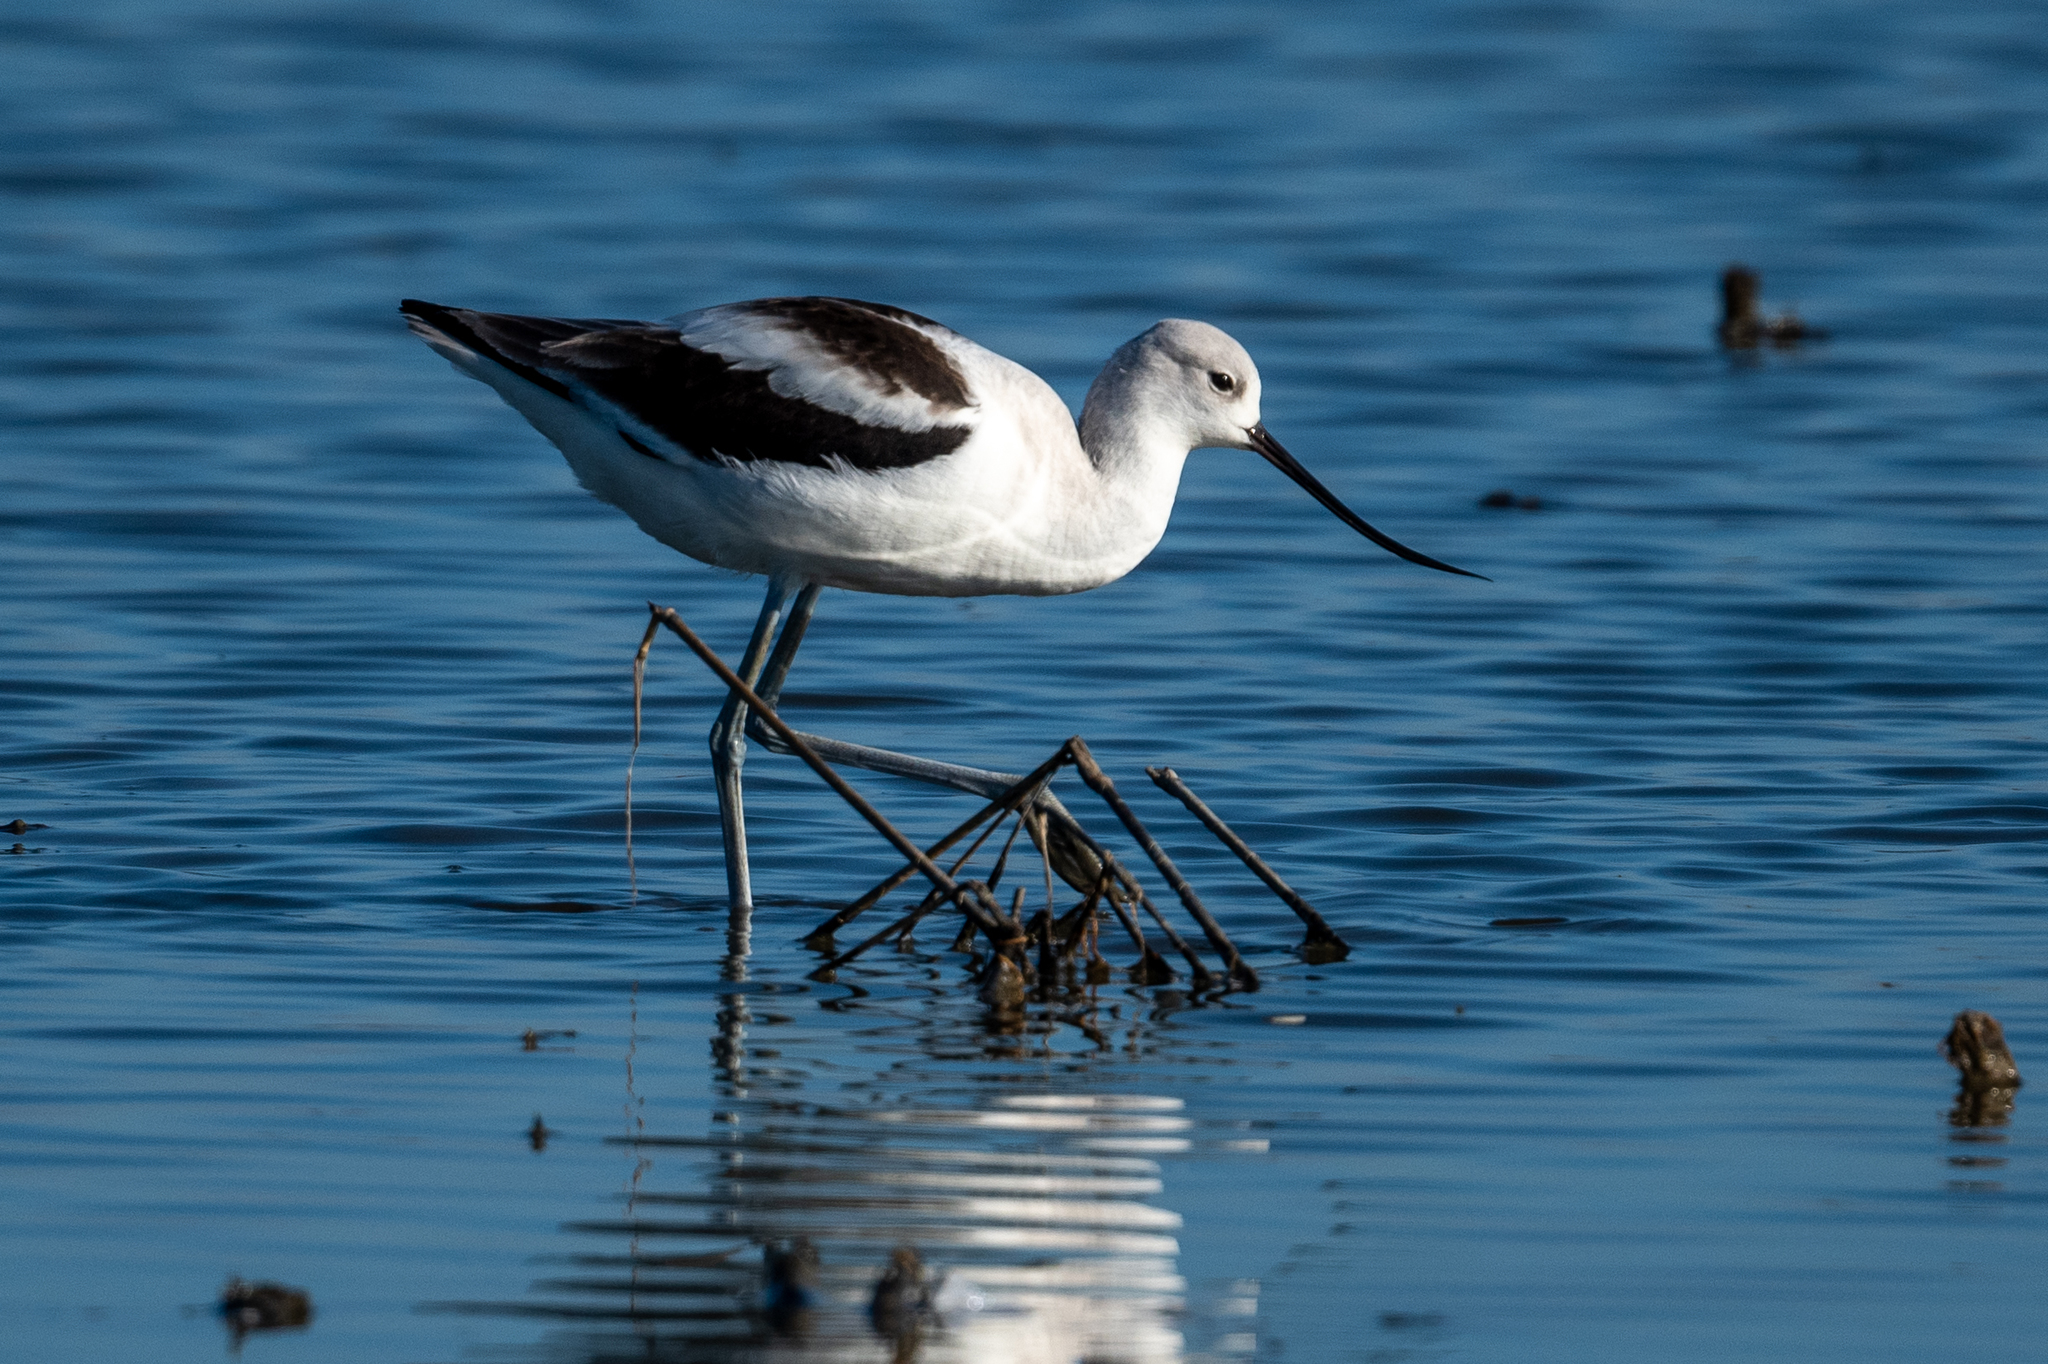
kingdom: Animalia
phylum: Chordata
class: Aves
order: Charadriiformes
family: Recurvirostridae
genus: Recurvirostra
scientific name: Recurvirostra americana
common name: American avocet
